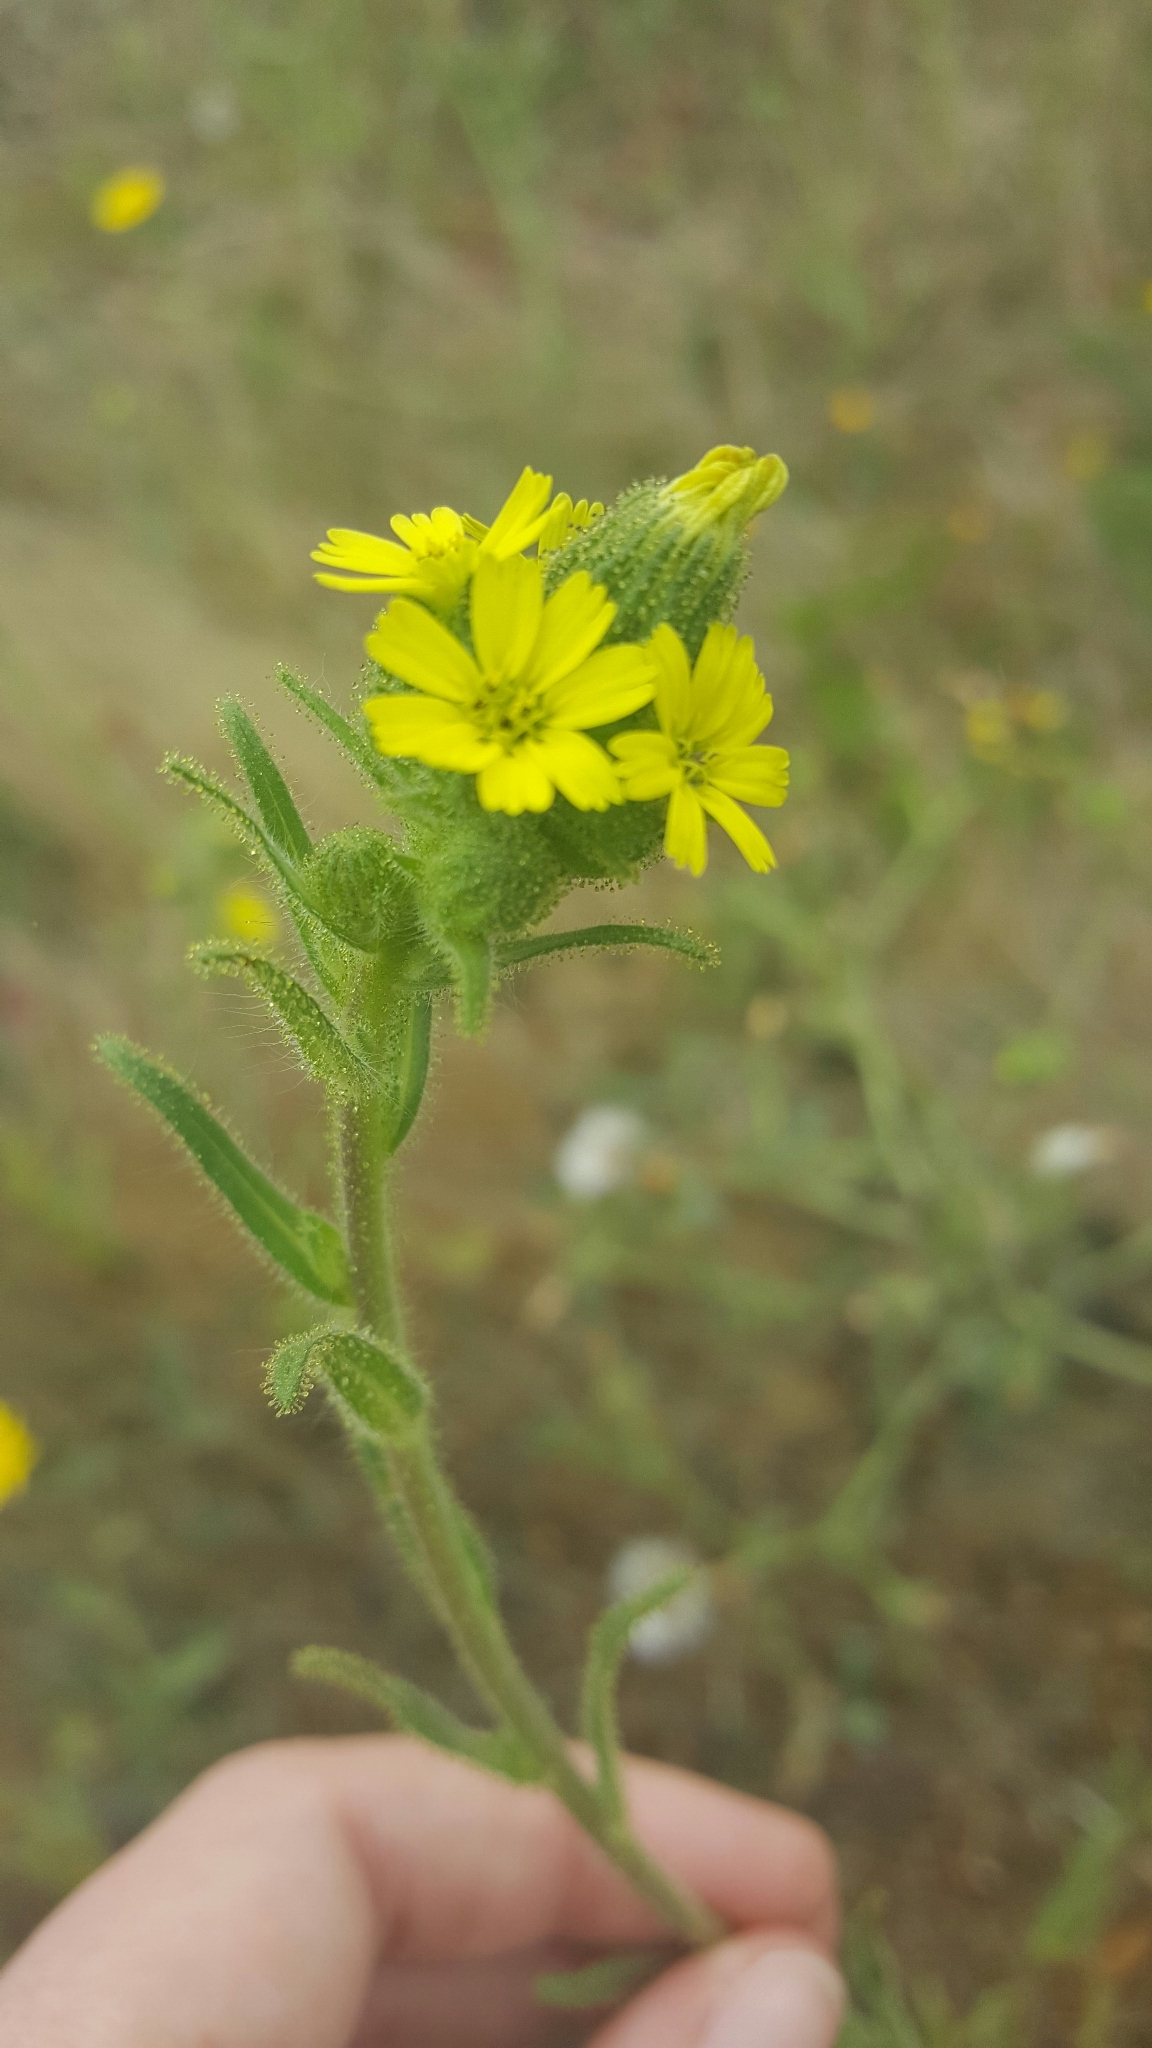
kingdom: Plantae
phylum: Tracheophyta
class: Magnoliopsida
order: Asterales
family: Asteraceae
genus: Madia
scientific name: Madia sativa
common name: Coast tarweed
